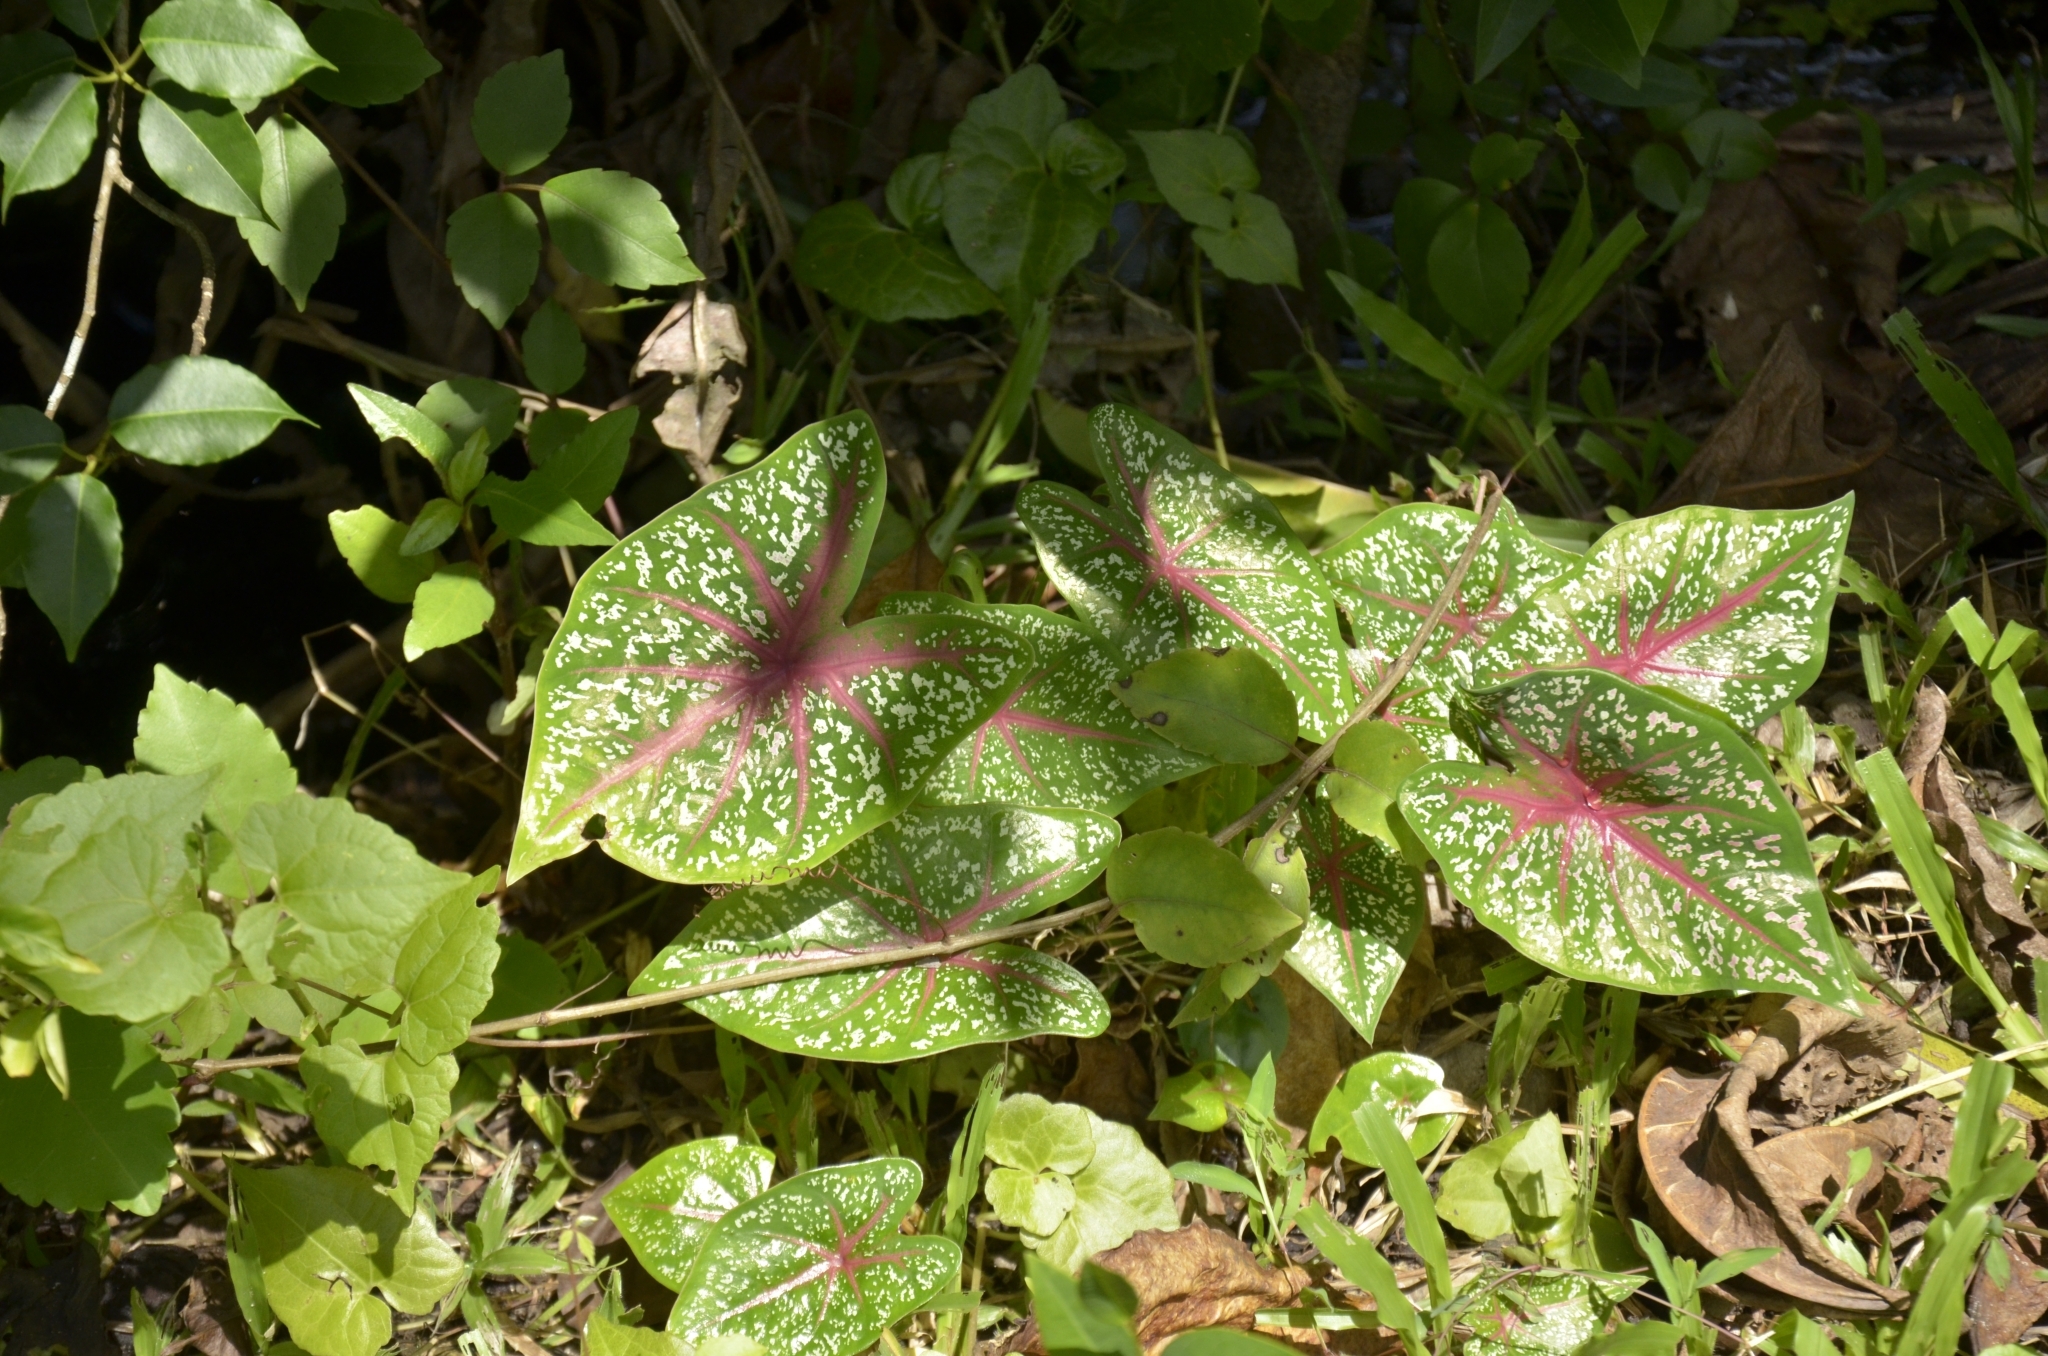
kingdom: Plantae
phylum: Tracheophyta
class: Liliopsida
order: Alismatales
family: Araceae
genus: Caladium
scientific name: Caladium bicolor
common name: Artist's pallet
